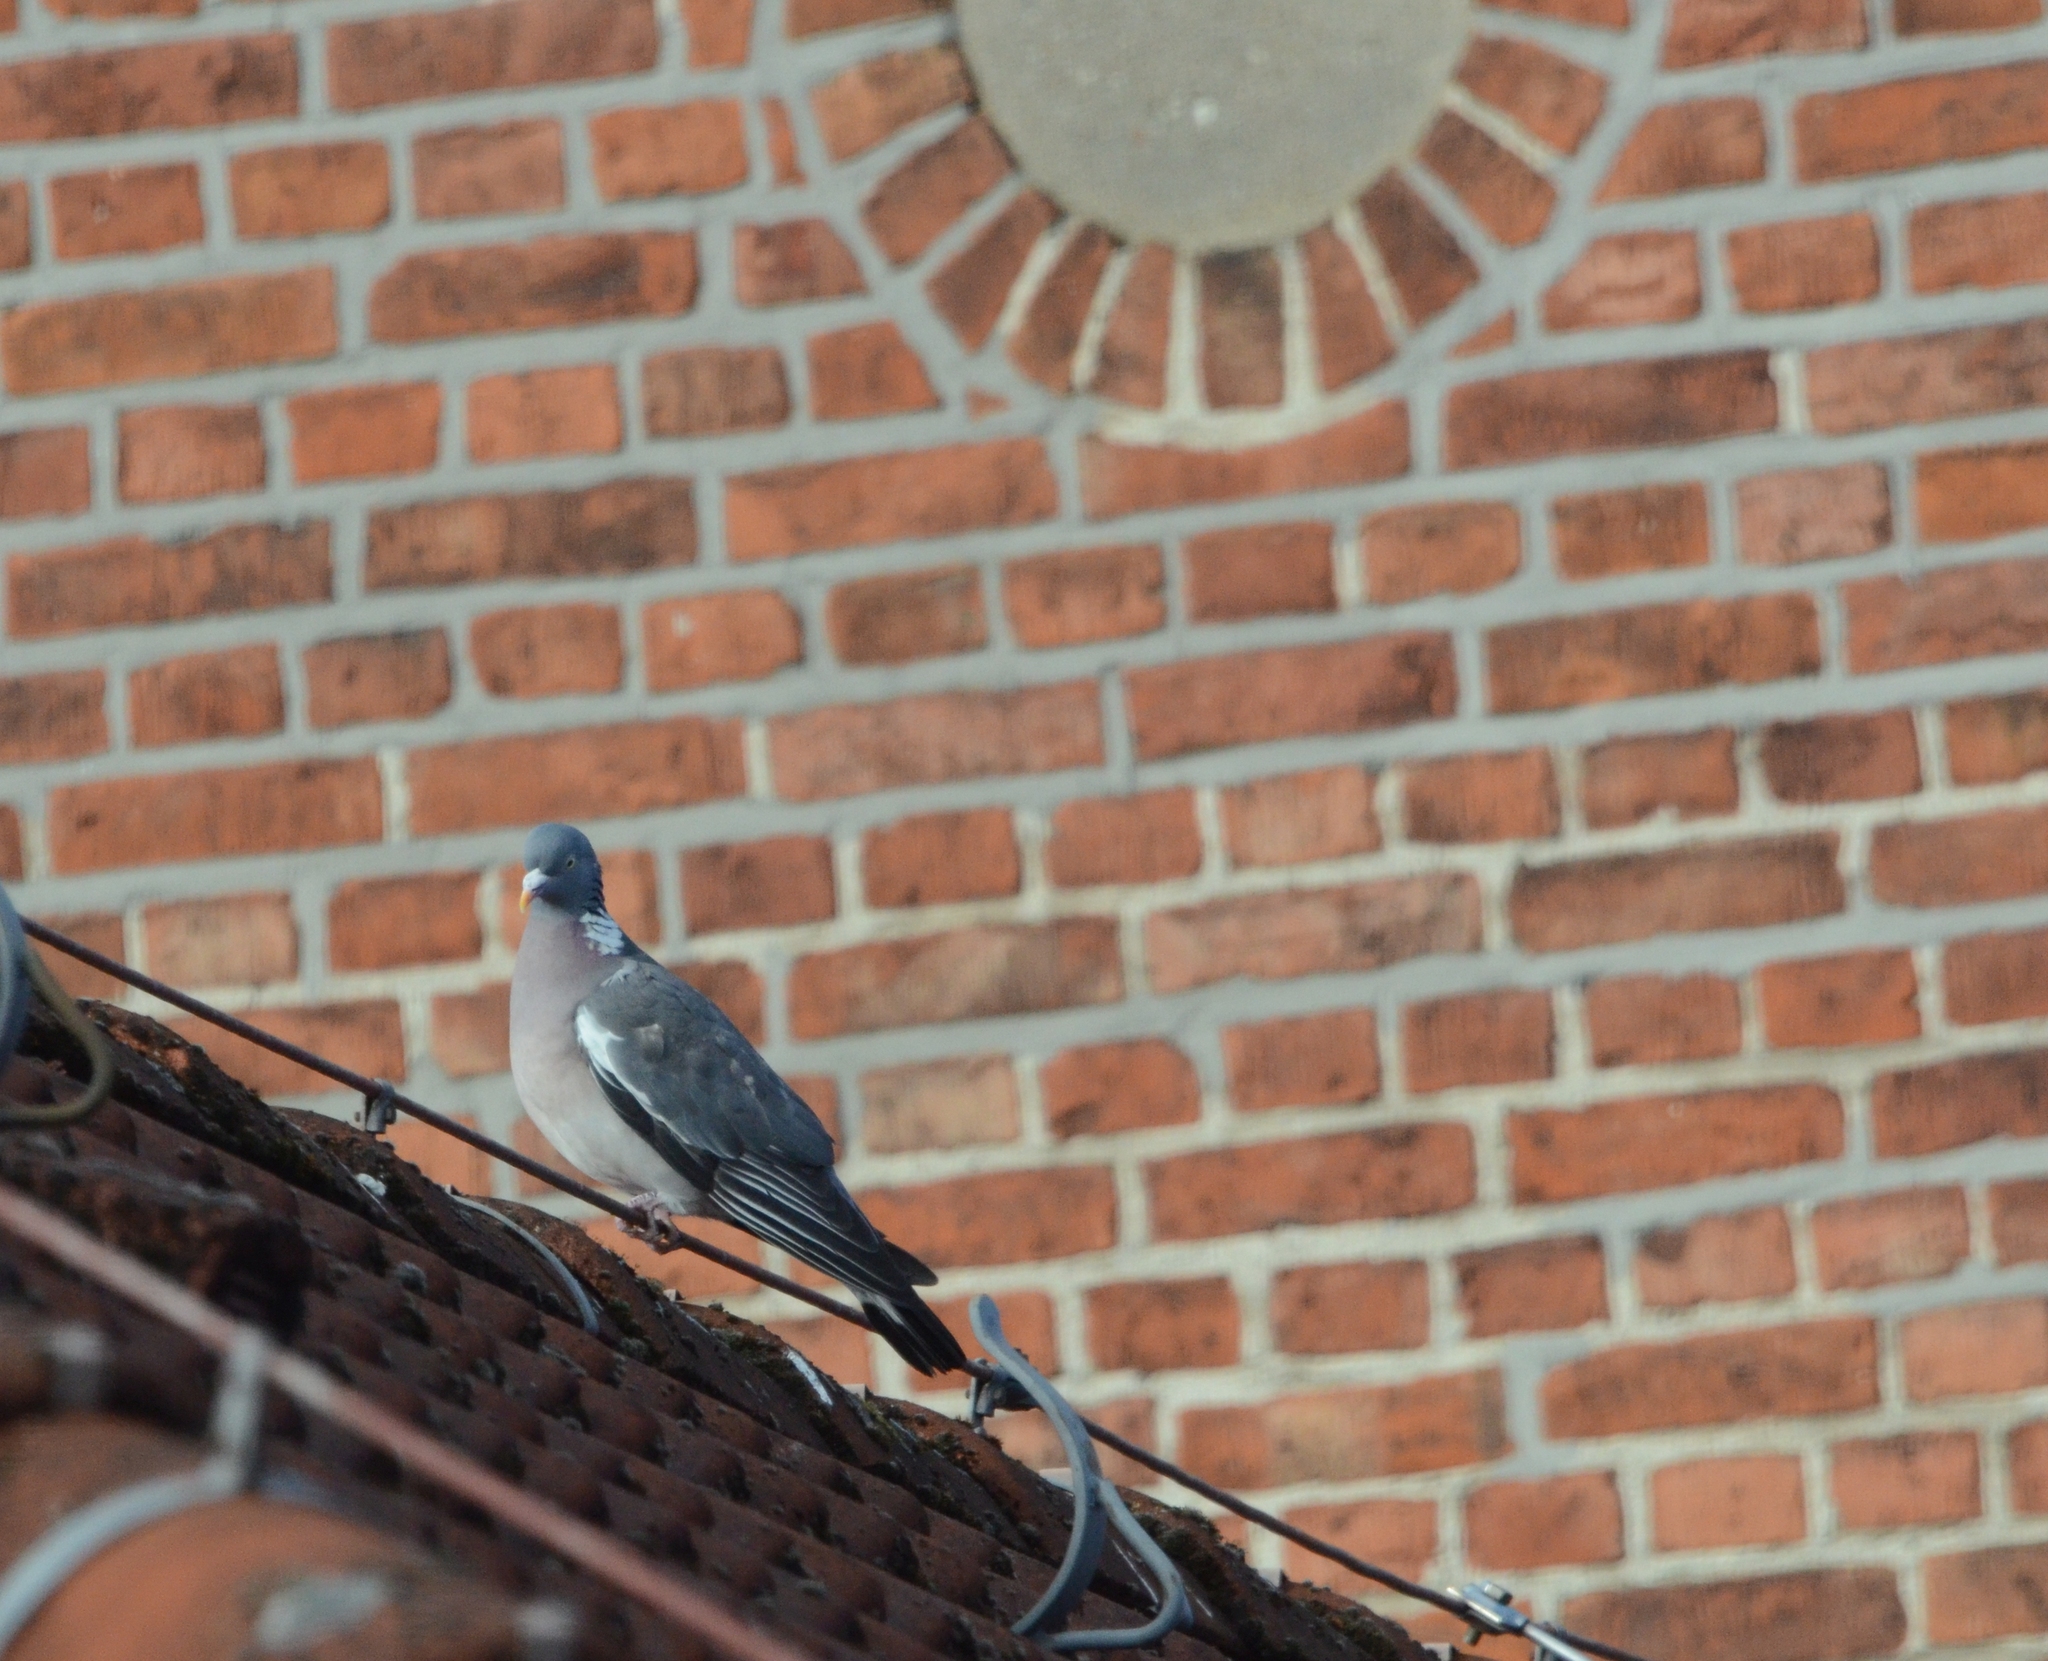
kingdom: Animalia
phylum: Chordata
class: Aves
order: Columbiformes
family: Columbidae
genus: Columba
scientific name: Columba palumbus
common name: Common wood pigeon
